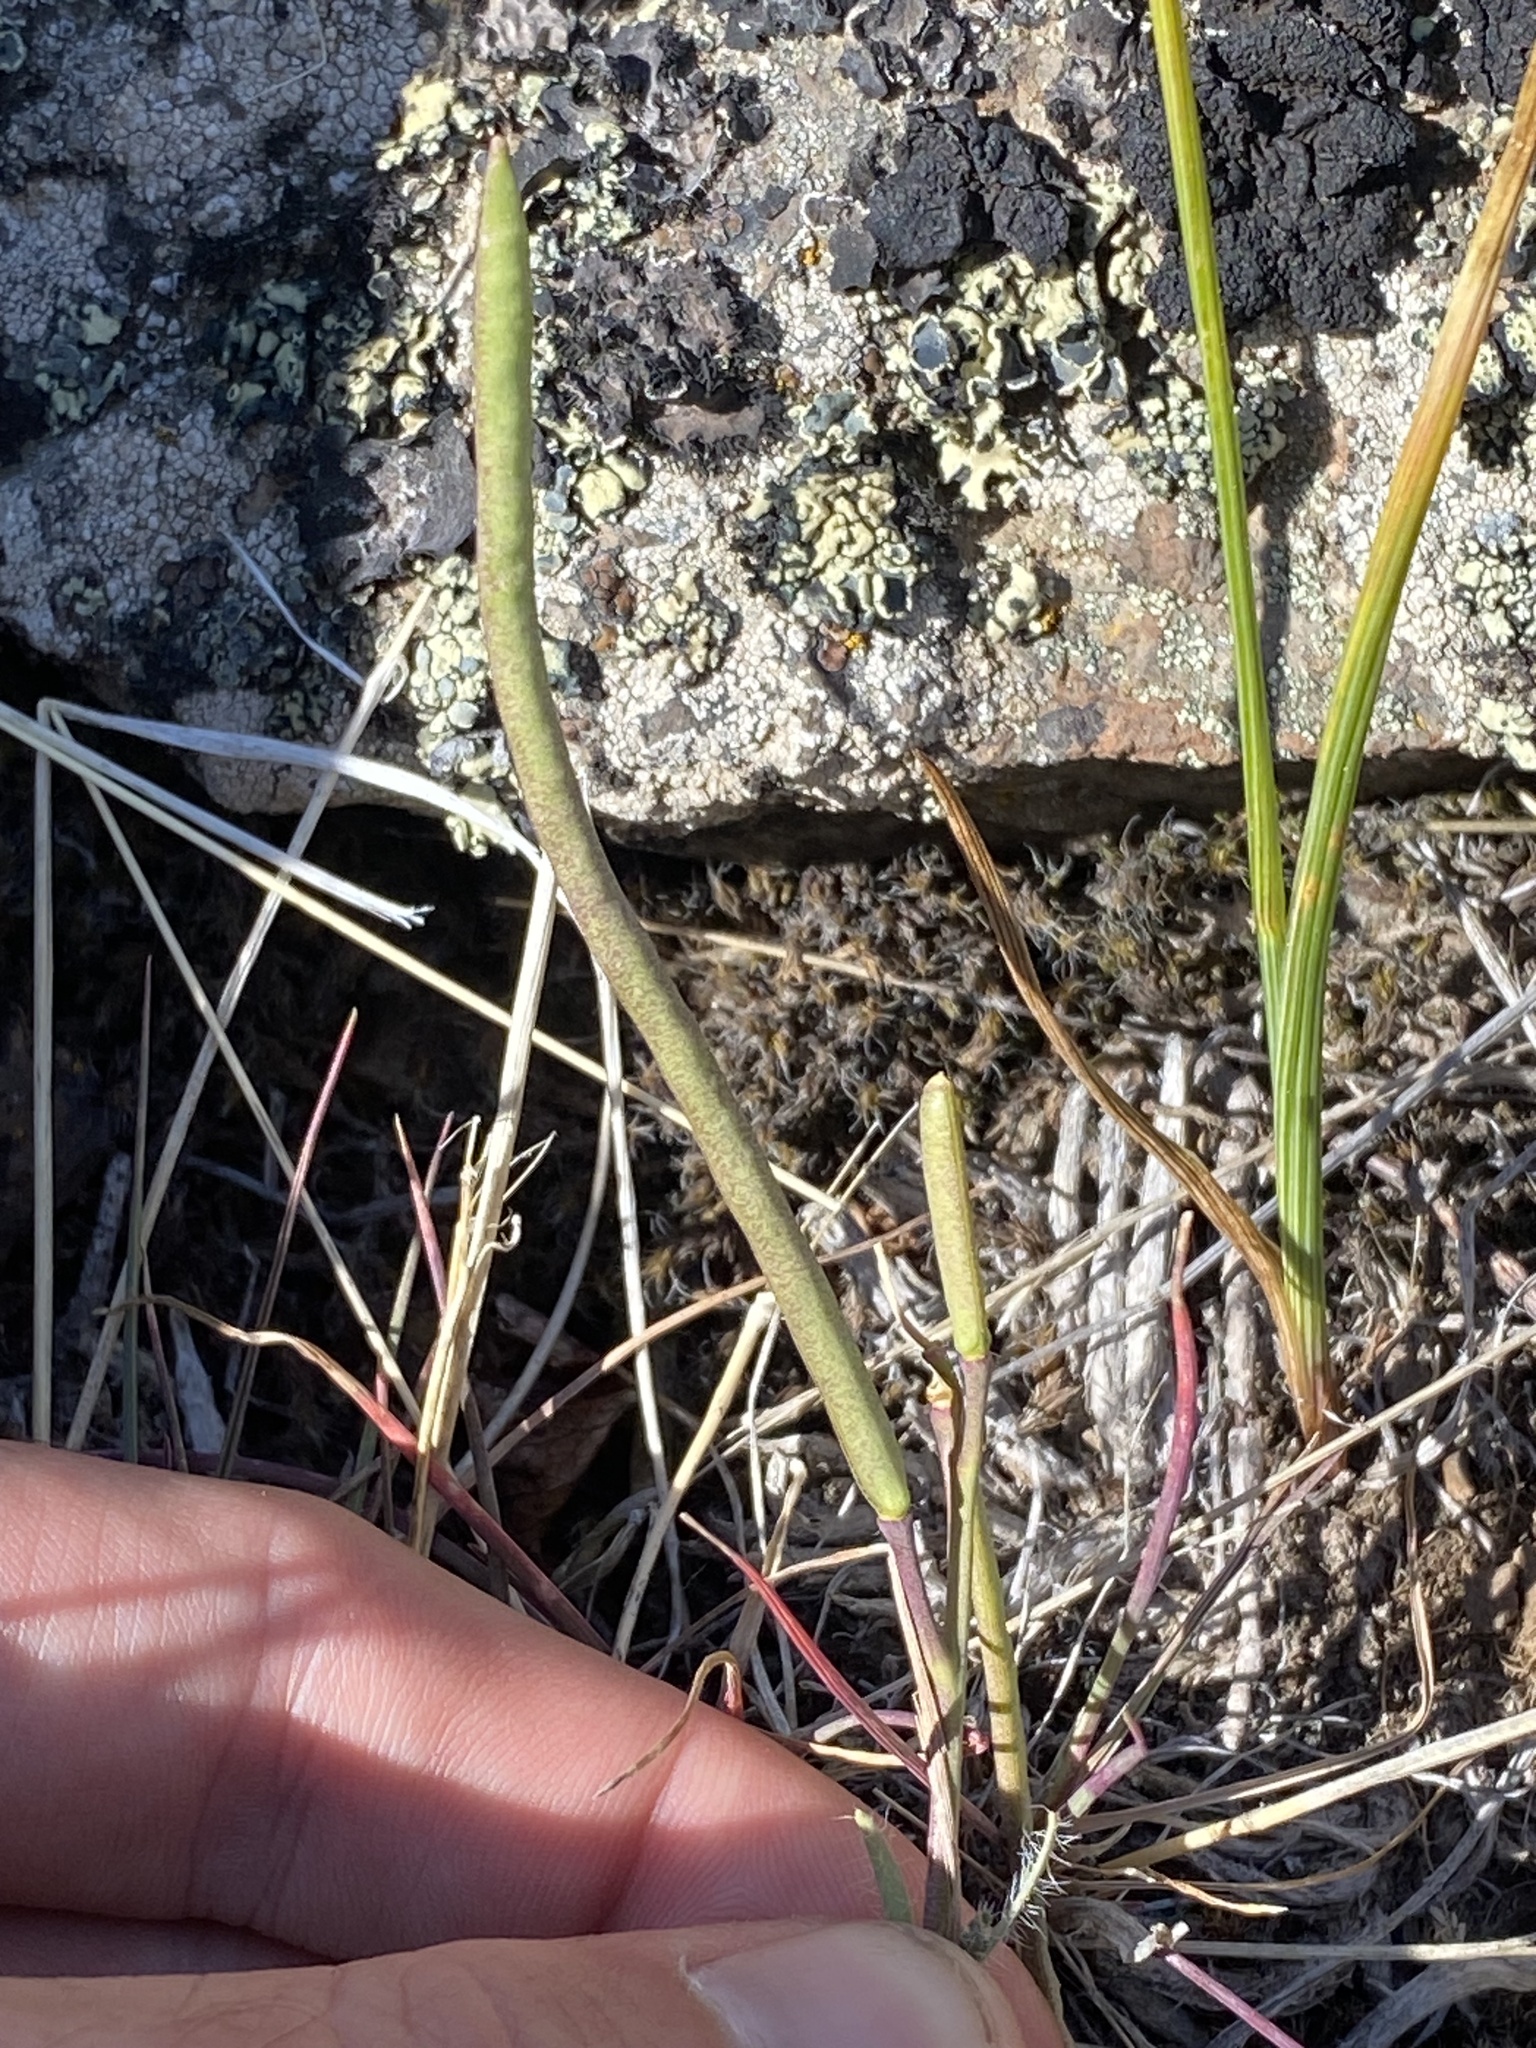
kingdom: Plantae
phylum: Tracheophyta
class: Magnoliopsida
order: Brassicales
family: Brassicaceae
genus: Boechera
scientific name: Boechera cusickii
